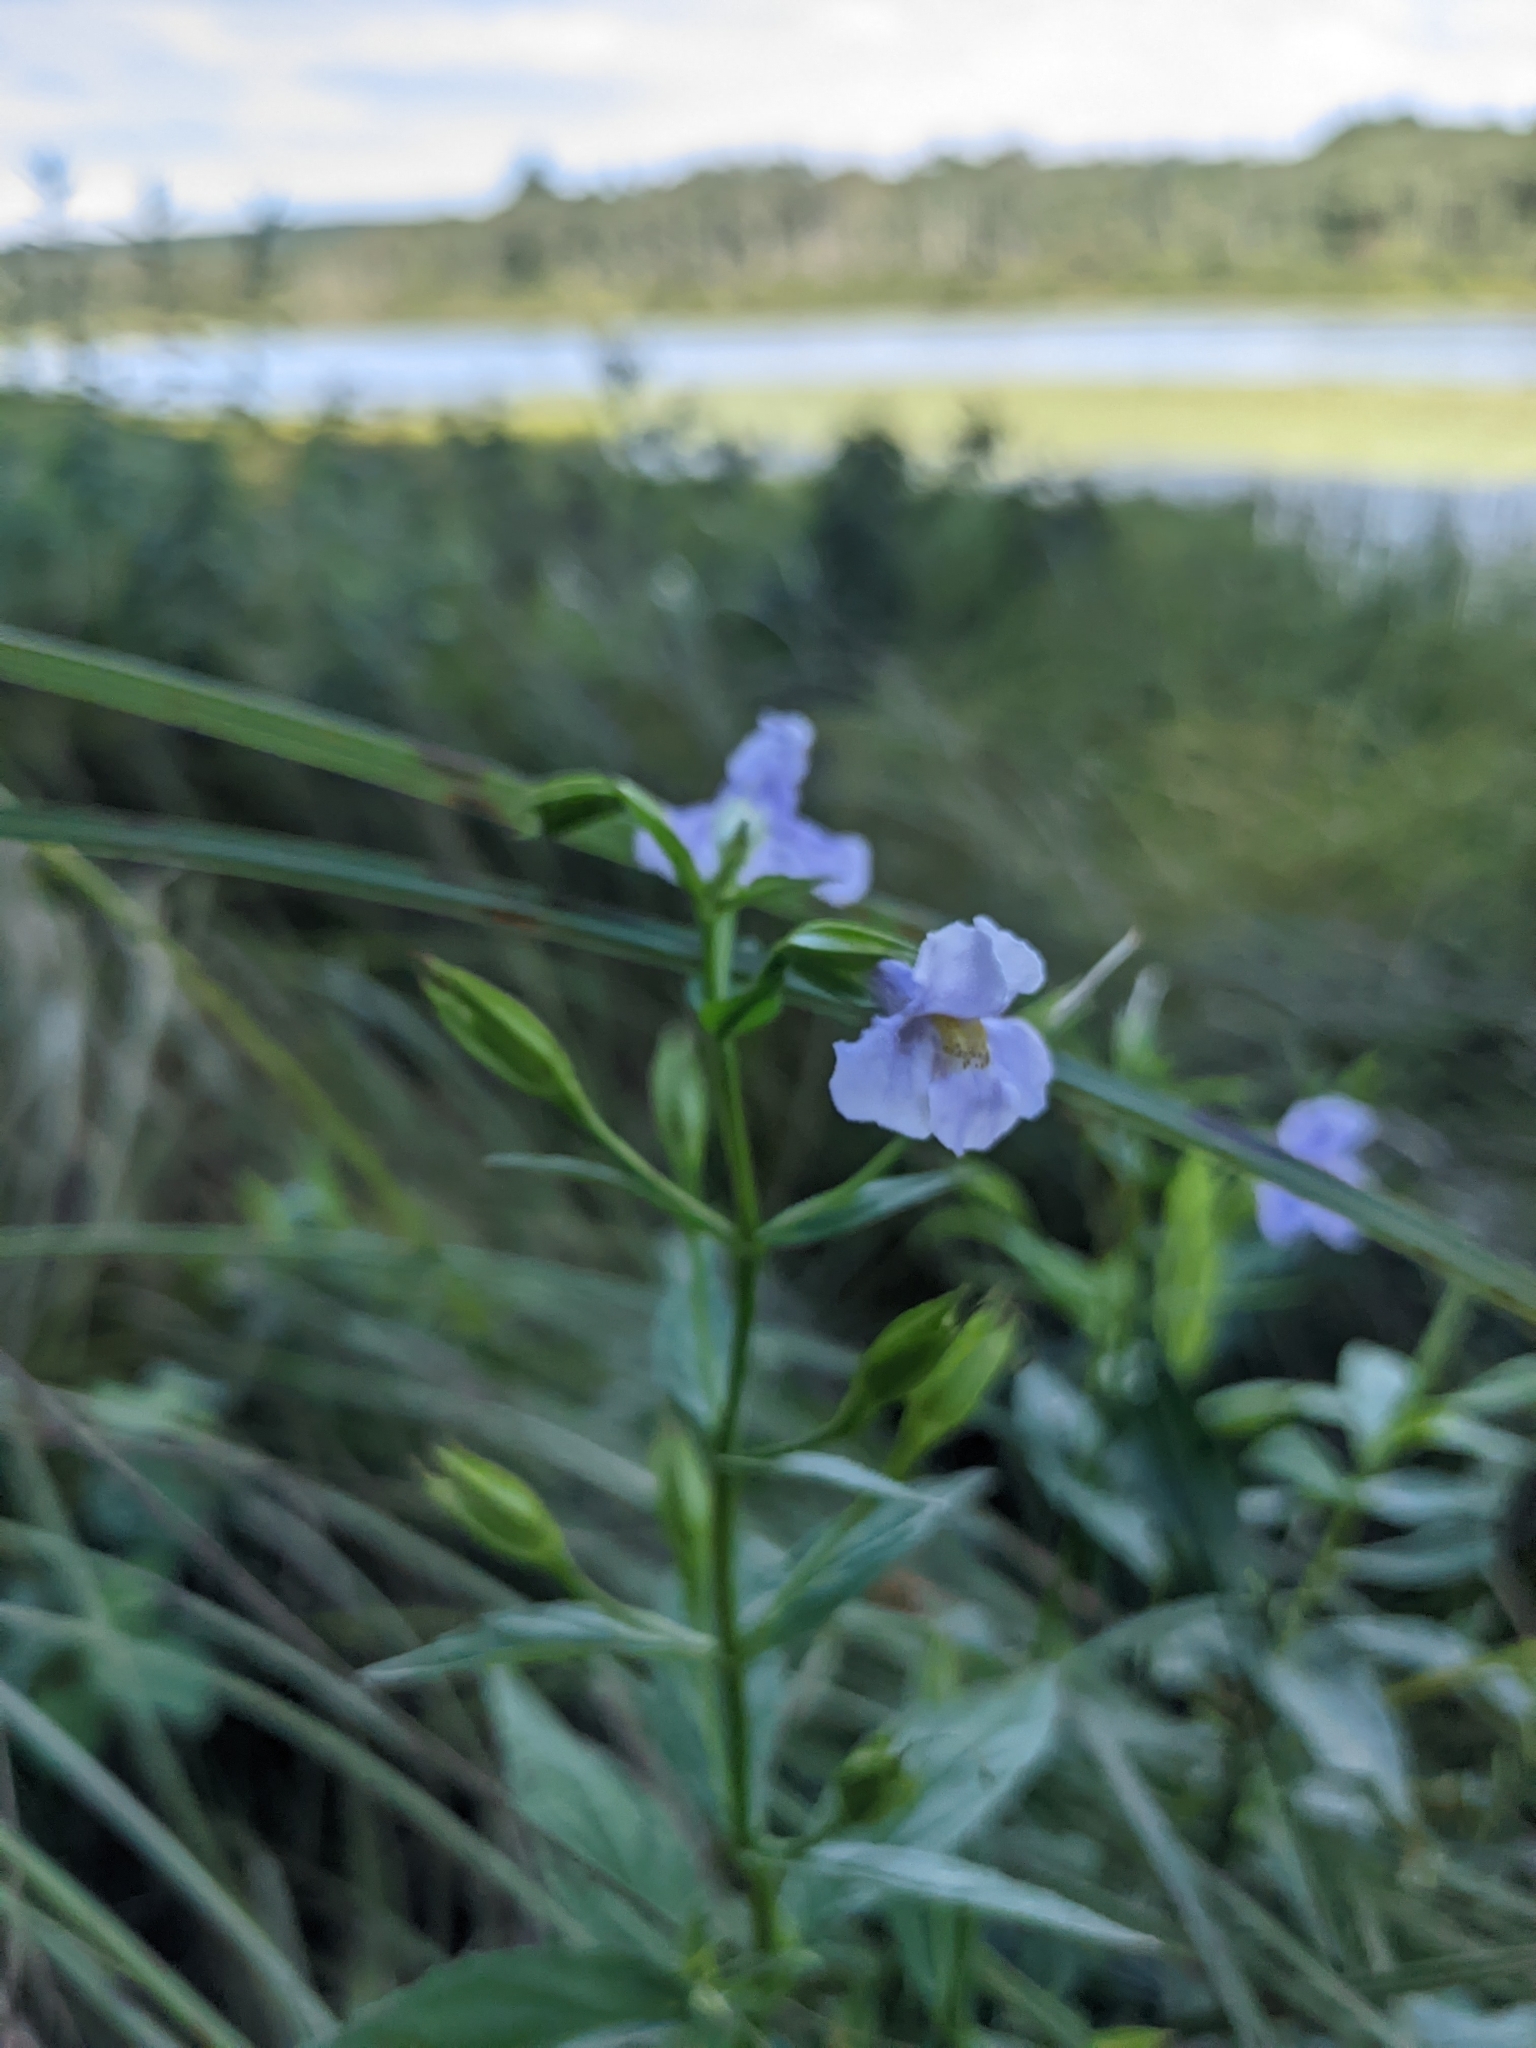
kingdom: Plantae
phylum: Tracheophyta
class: Magnoliopsida
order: Lamiales
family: Phrymaceae
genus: Mimulus
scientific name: Mimulus ringens
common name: Allegheny monkeyflower
